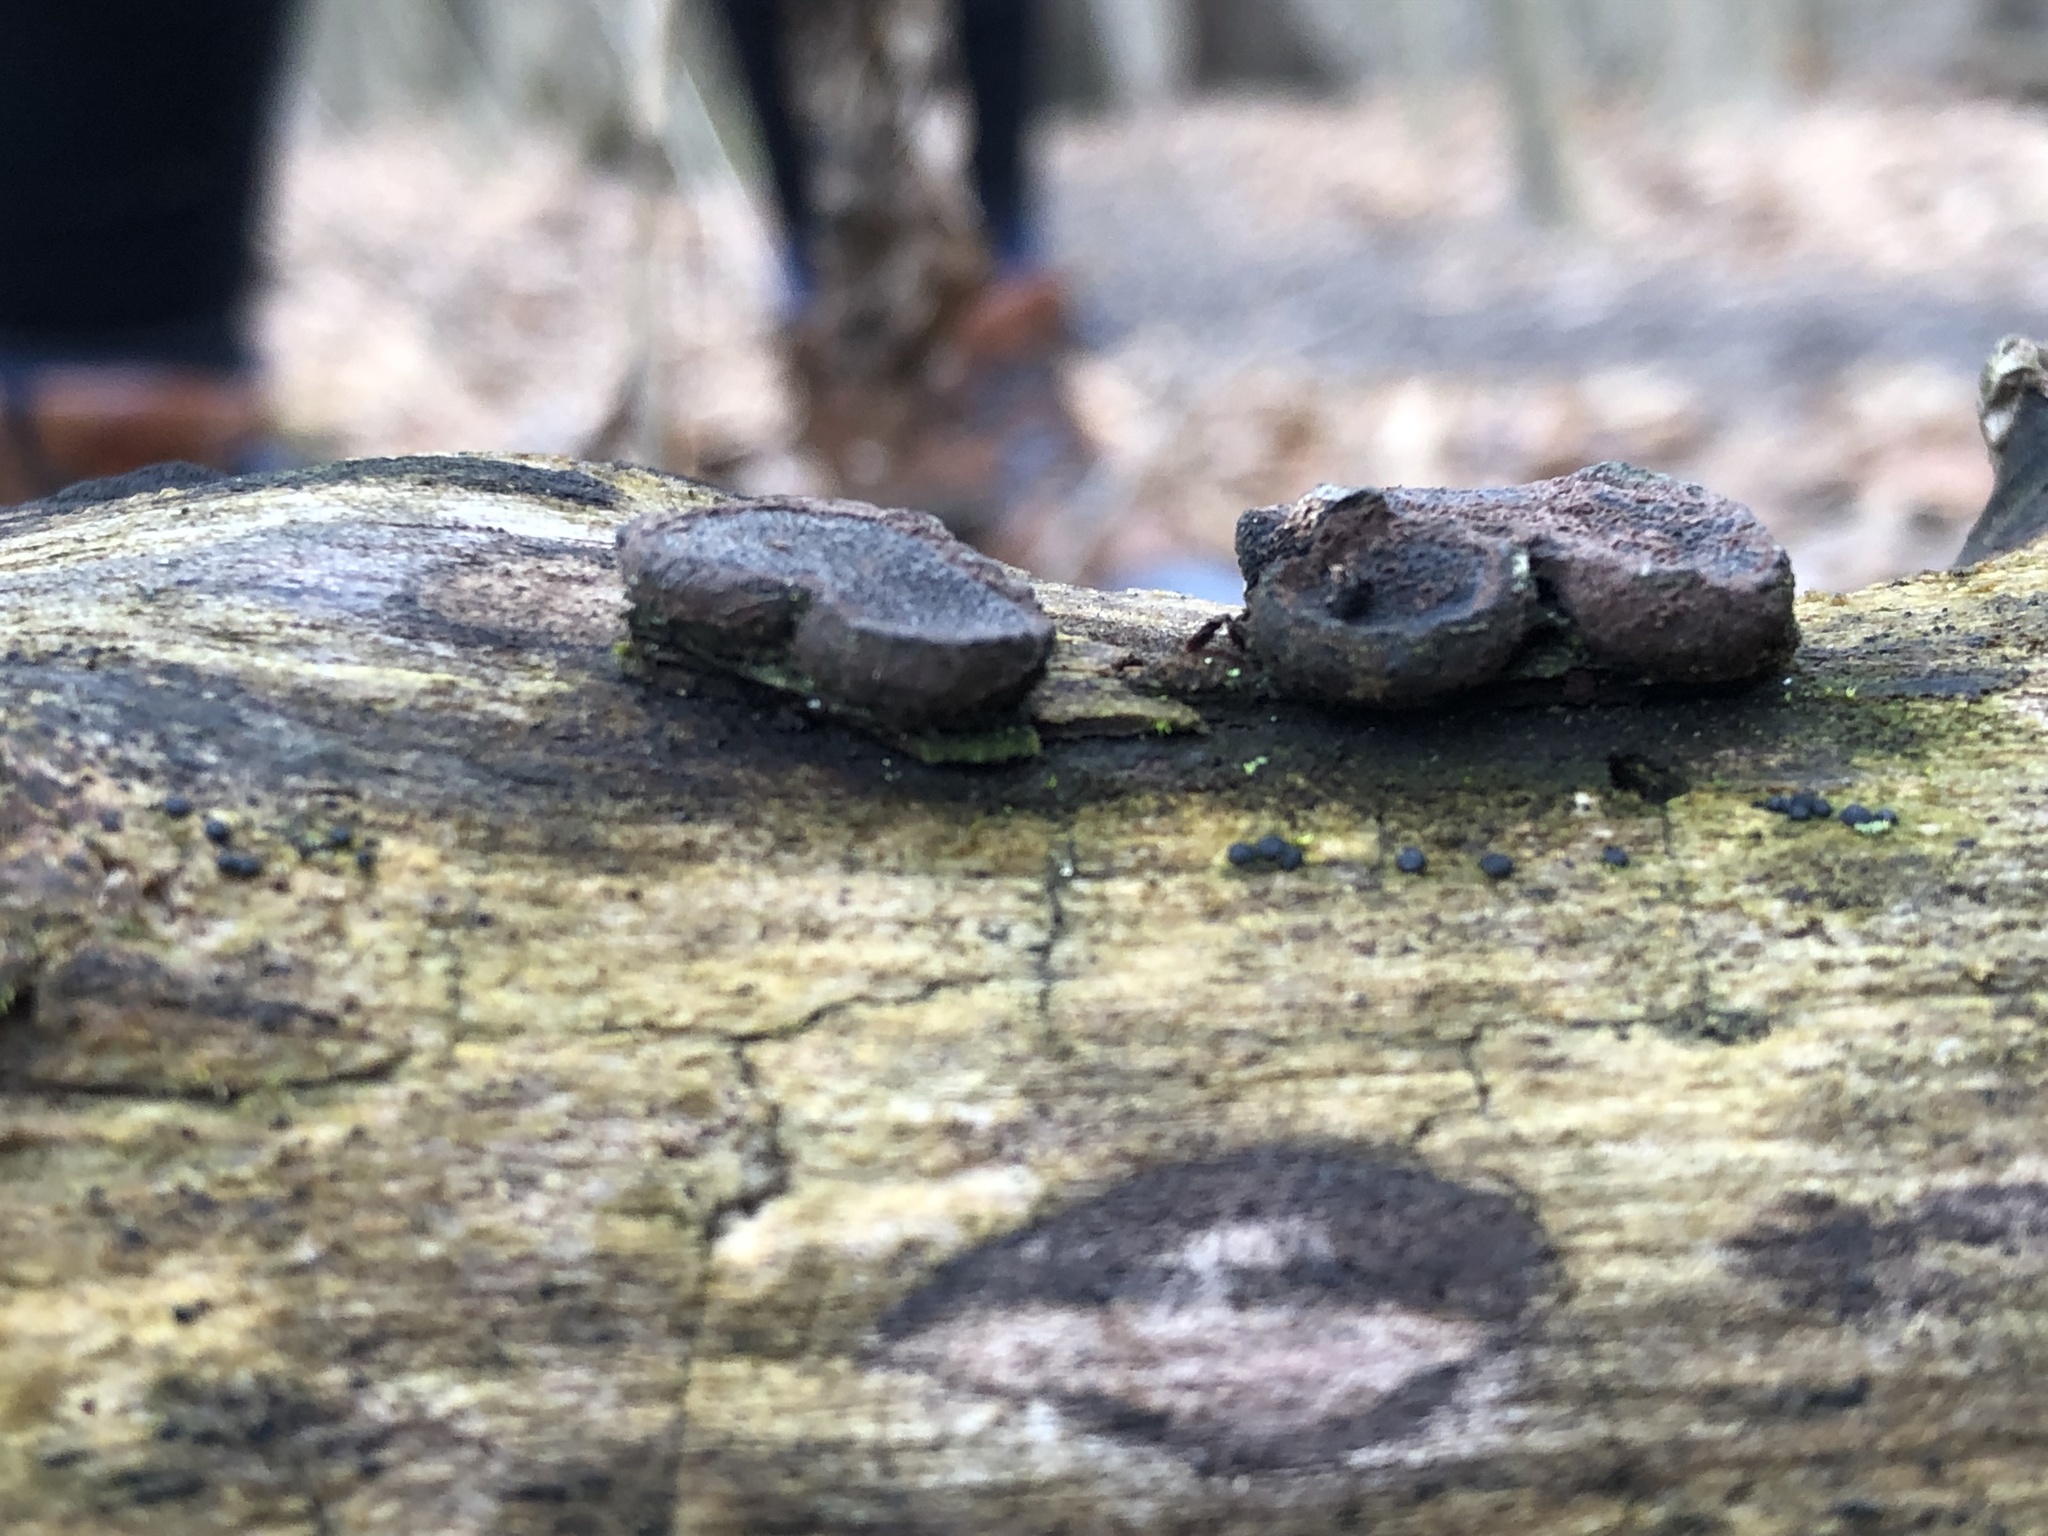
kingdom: Fungi
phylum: Ascomycota
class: Sordariomycetes
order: Xylariales
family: Graphostromataceae
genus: Biscogniauxia
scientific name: Biscogniauxia marginata
